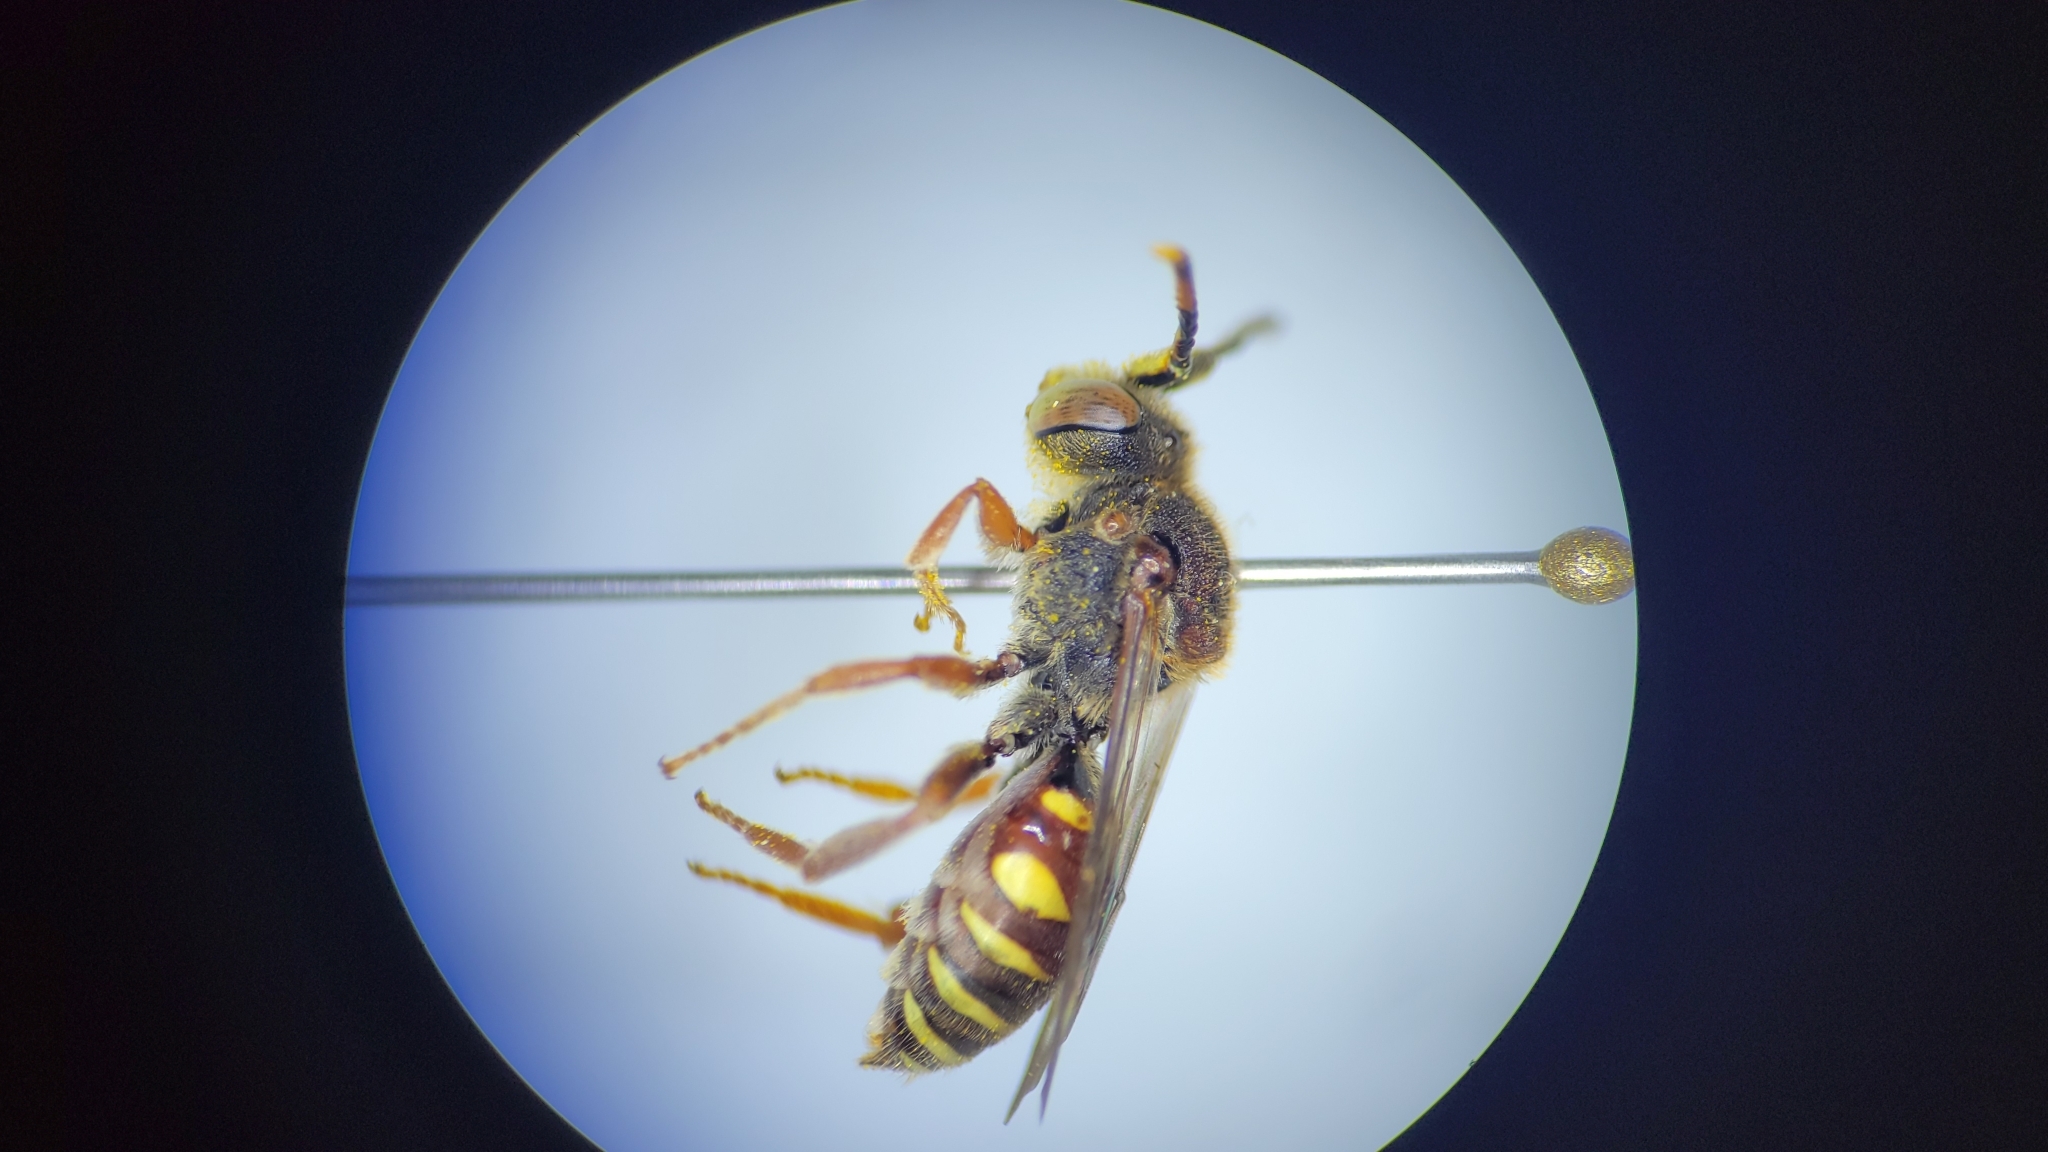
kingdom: Animalia
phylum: Arthropoda
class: Insecta
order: Hymenoptera
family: Apidae
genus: Nomada
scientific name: Nomada articulata
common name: Articulated nomad
